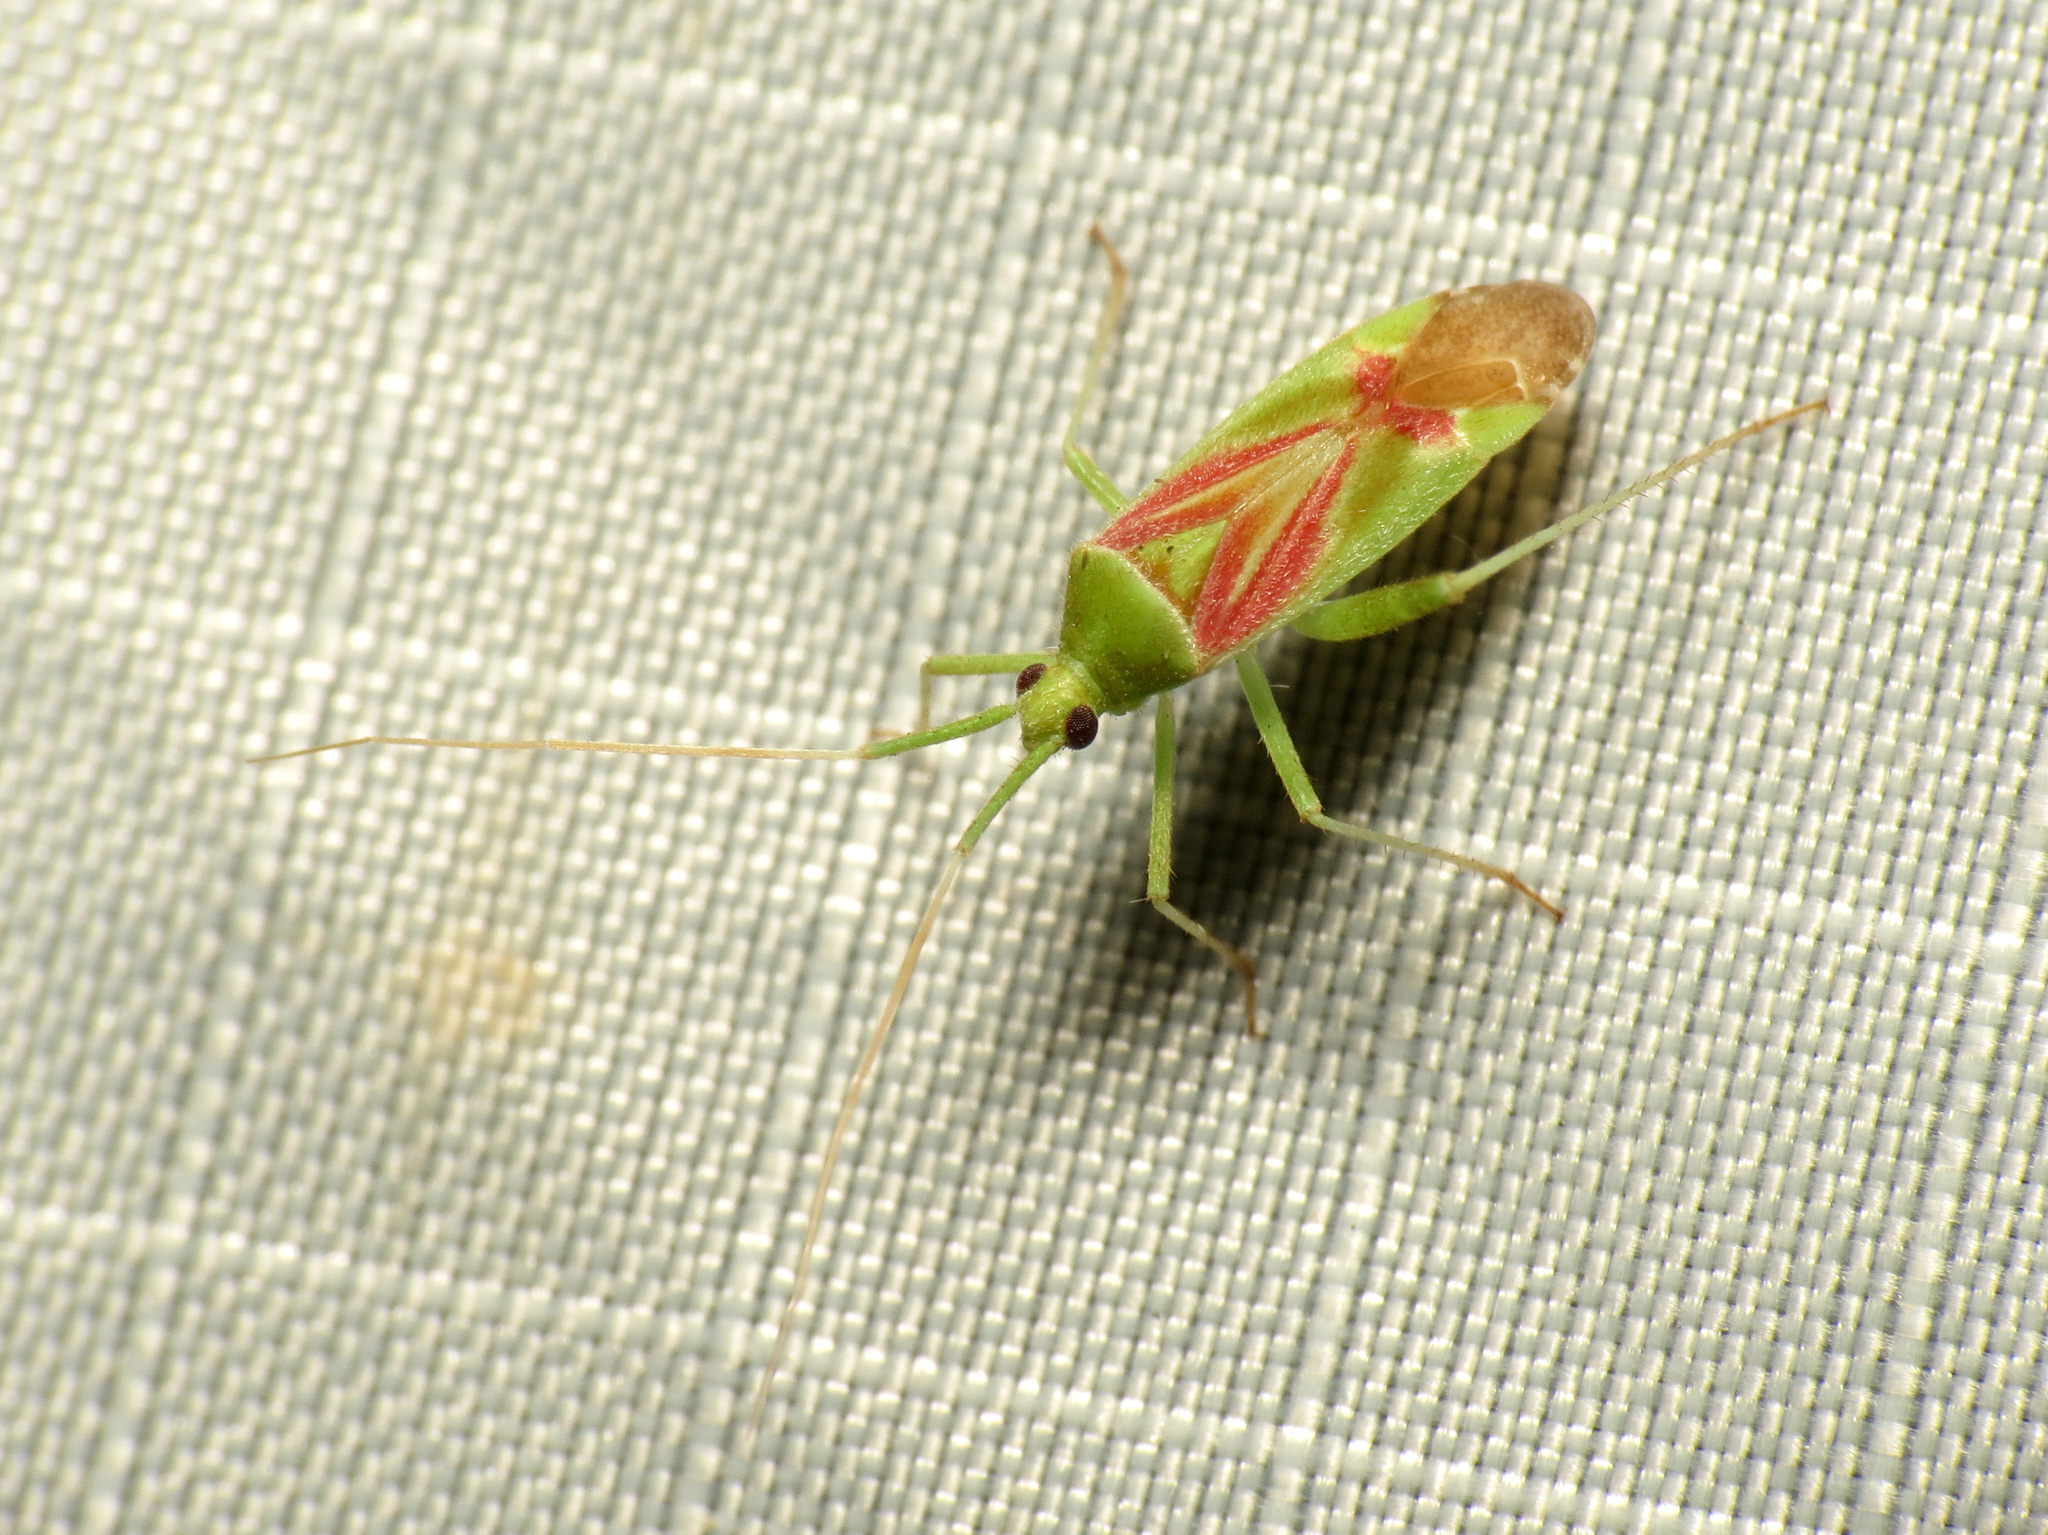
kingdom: Animalia
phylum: Arthropoda
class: Insecta
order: Hemiptera
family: Miridae
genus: Phytocoris
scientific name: Phytocoris roseotinctus
